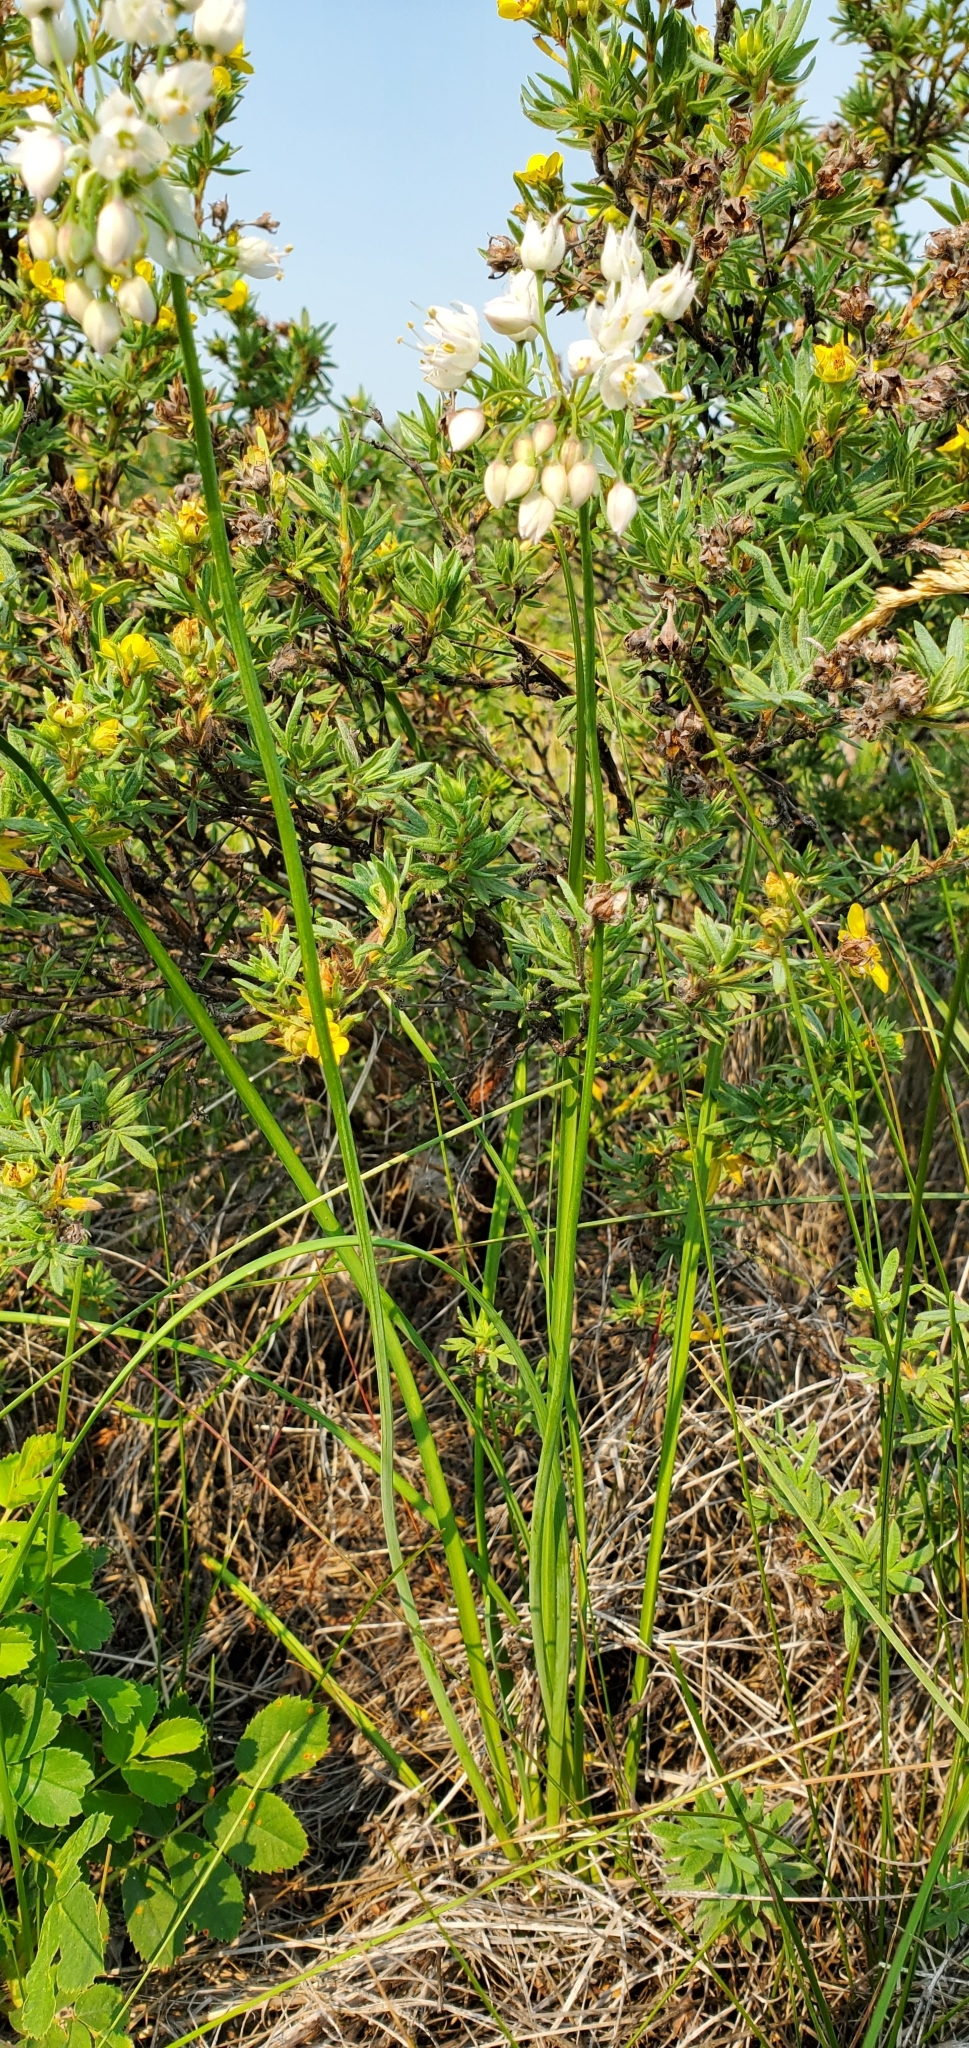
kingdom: Plantae
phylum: Tracheophyta
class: Liliopsida
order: Asparagales
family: Amaryllidaceae
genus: Allium
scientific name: Allium cernuum
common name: Nodding onion
